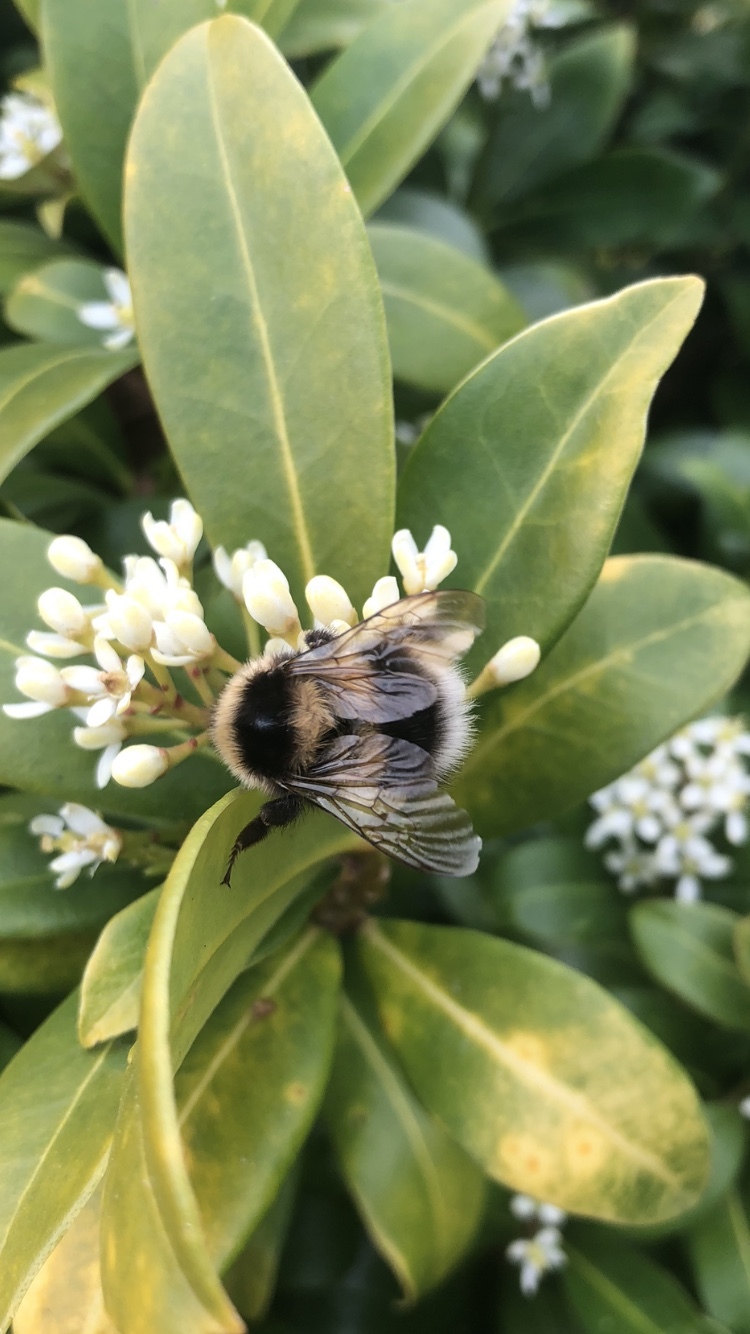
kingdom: Animalia
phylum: Arthropoda
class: Insecta
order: Hymenoptera
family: Apidae
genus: Bombus
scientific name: Bombus hortorum
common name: Garden bumblebee
